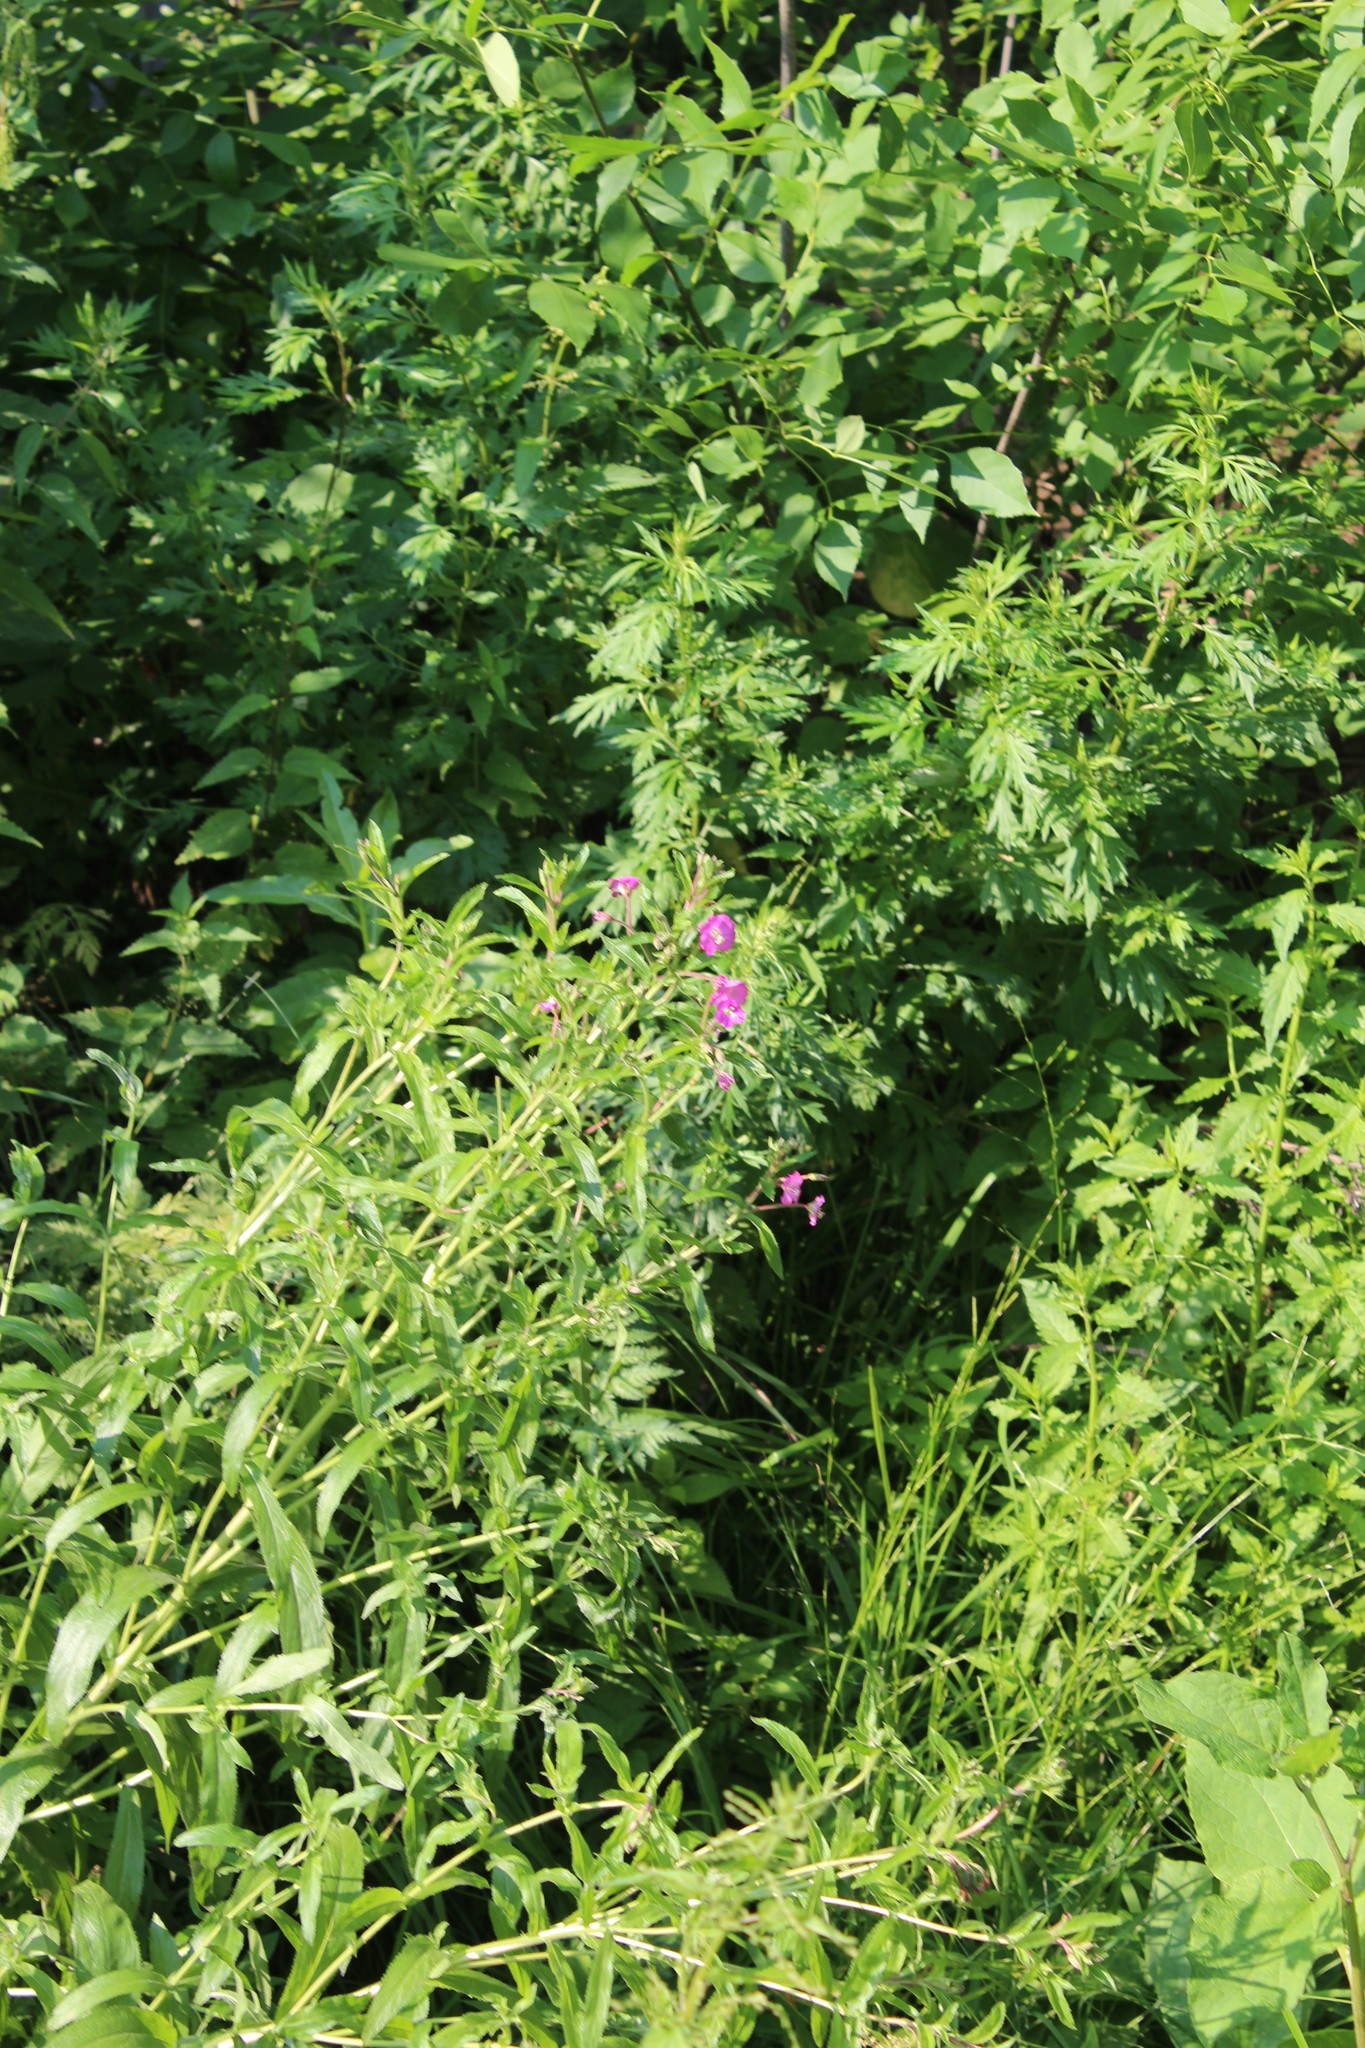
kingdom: Plantae
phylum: Tracheophyta
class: Magnoliopsida
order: Myrtales
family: Onagraceae
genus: Epilobium
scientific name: Epilobium hirsutum
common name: Great willowherb
